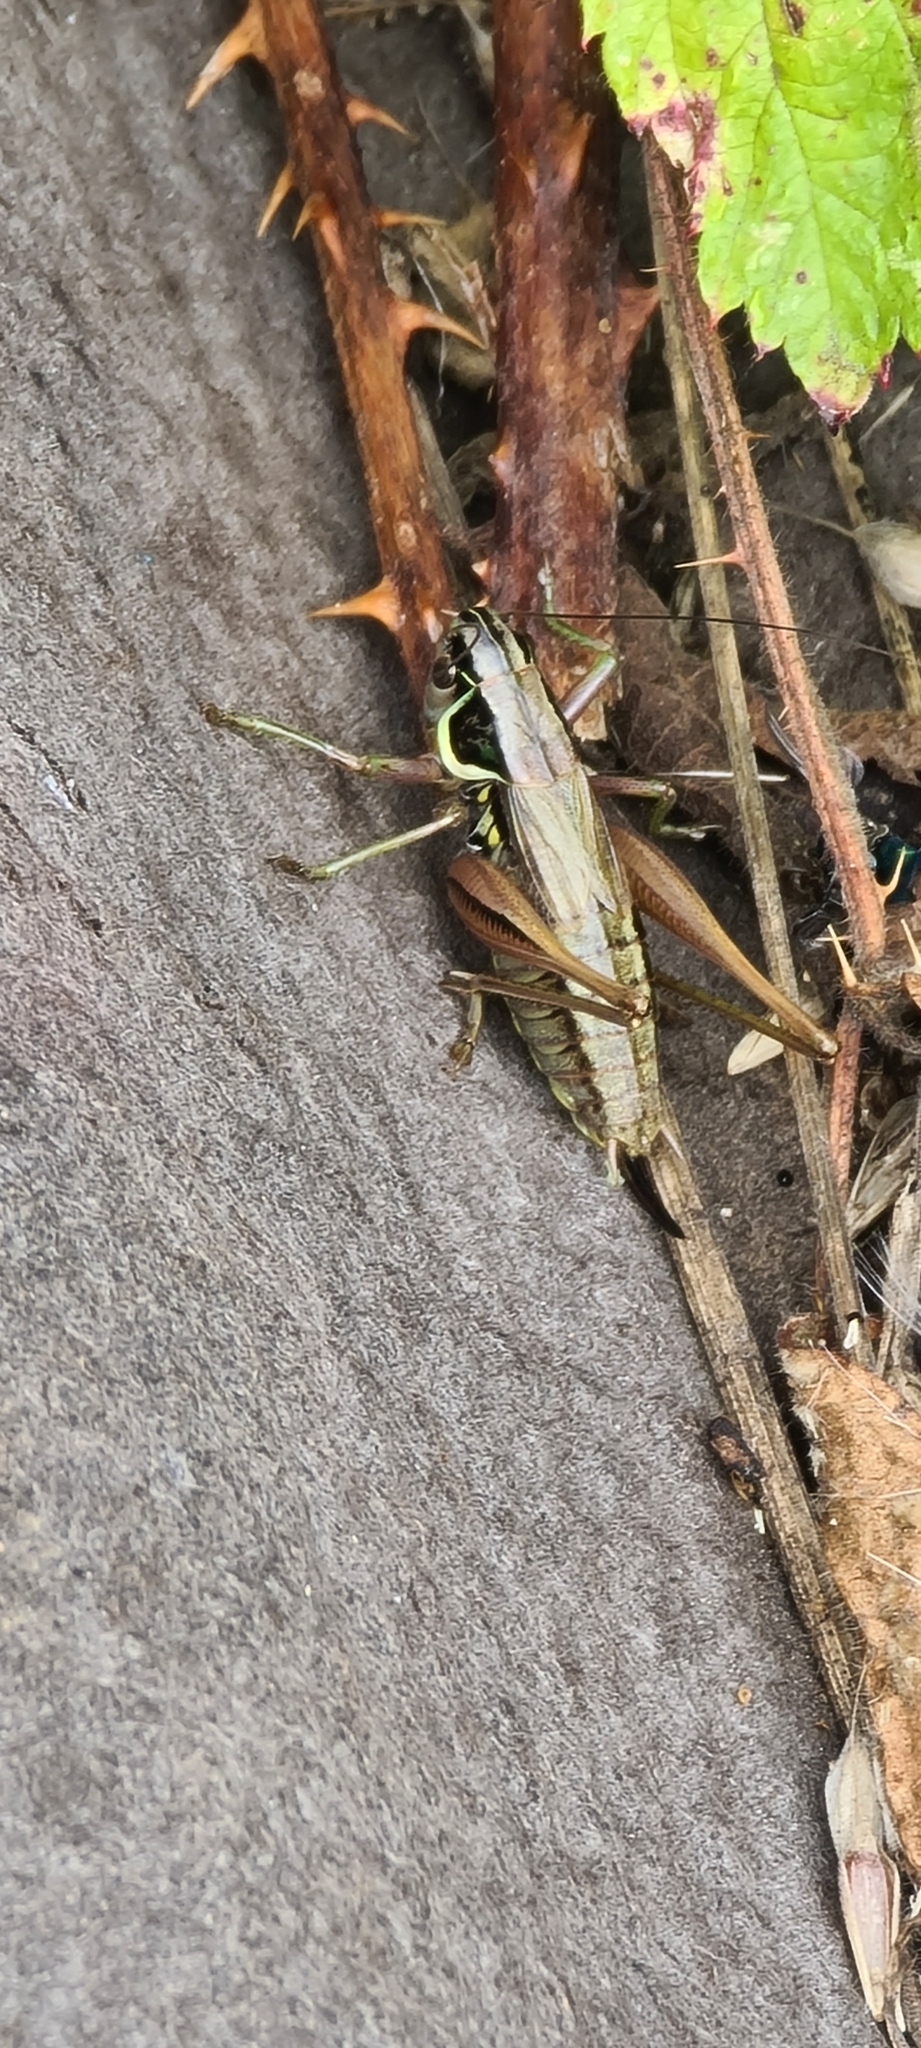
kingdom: Animalia
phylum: Arthropoda
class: Insecta
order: Orthoptera
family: Tettigoniidae
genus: Roeseliana
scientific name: Roeseliana roeselii
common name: Roesel's bush cricket
